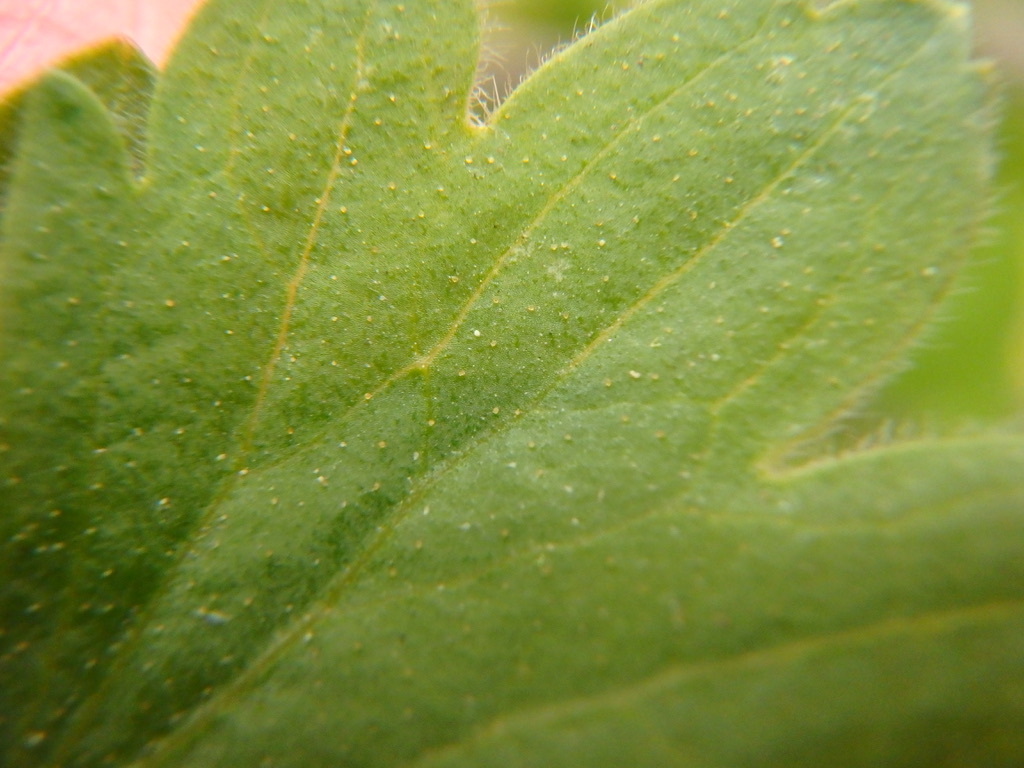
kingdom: Plantae
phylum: Tracheophyta
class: Magnoliopsida
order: Saxifragales
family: Grossulariaceae
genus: Ribes
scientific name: Ribes aureum
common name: Golden currant
